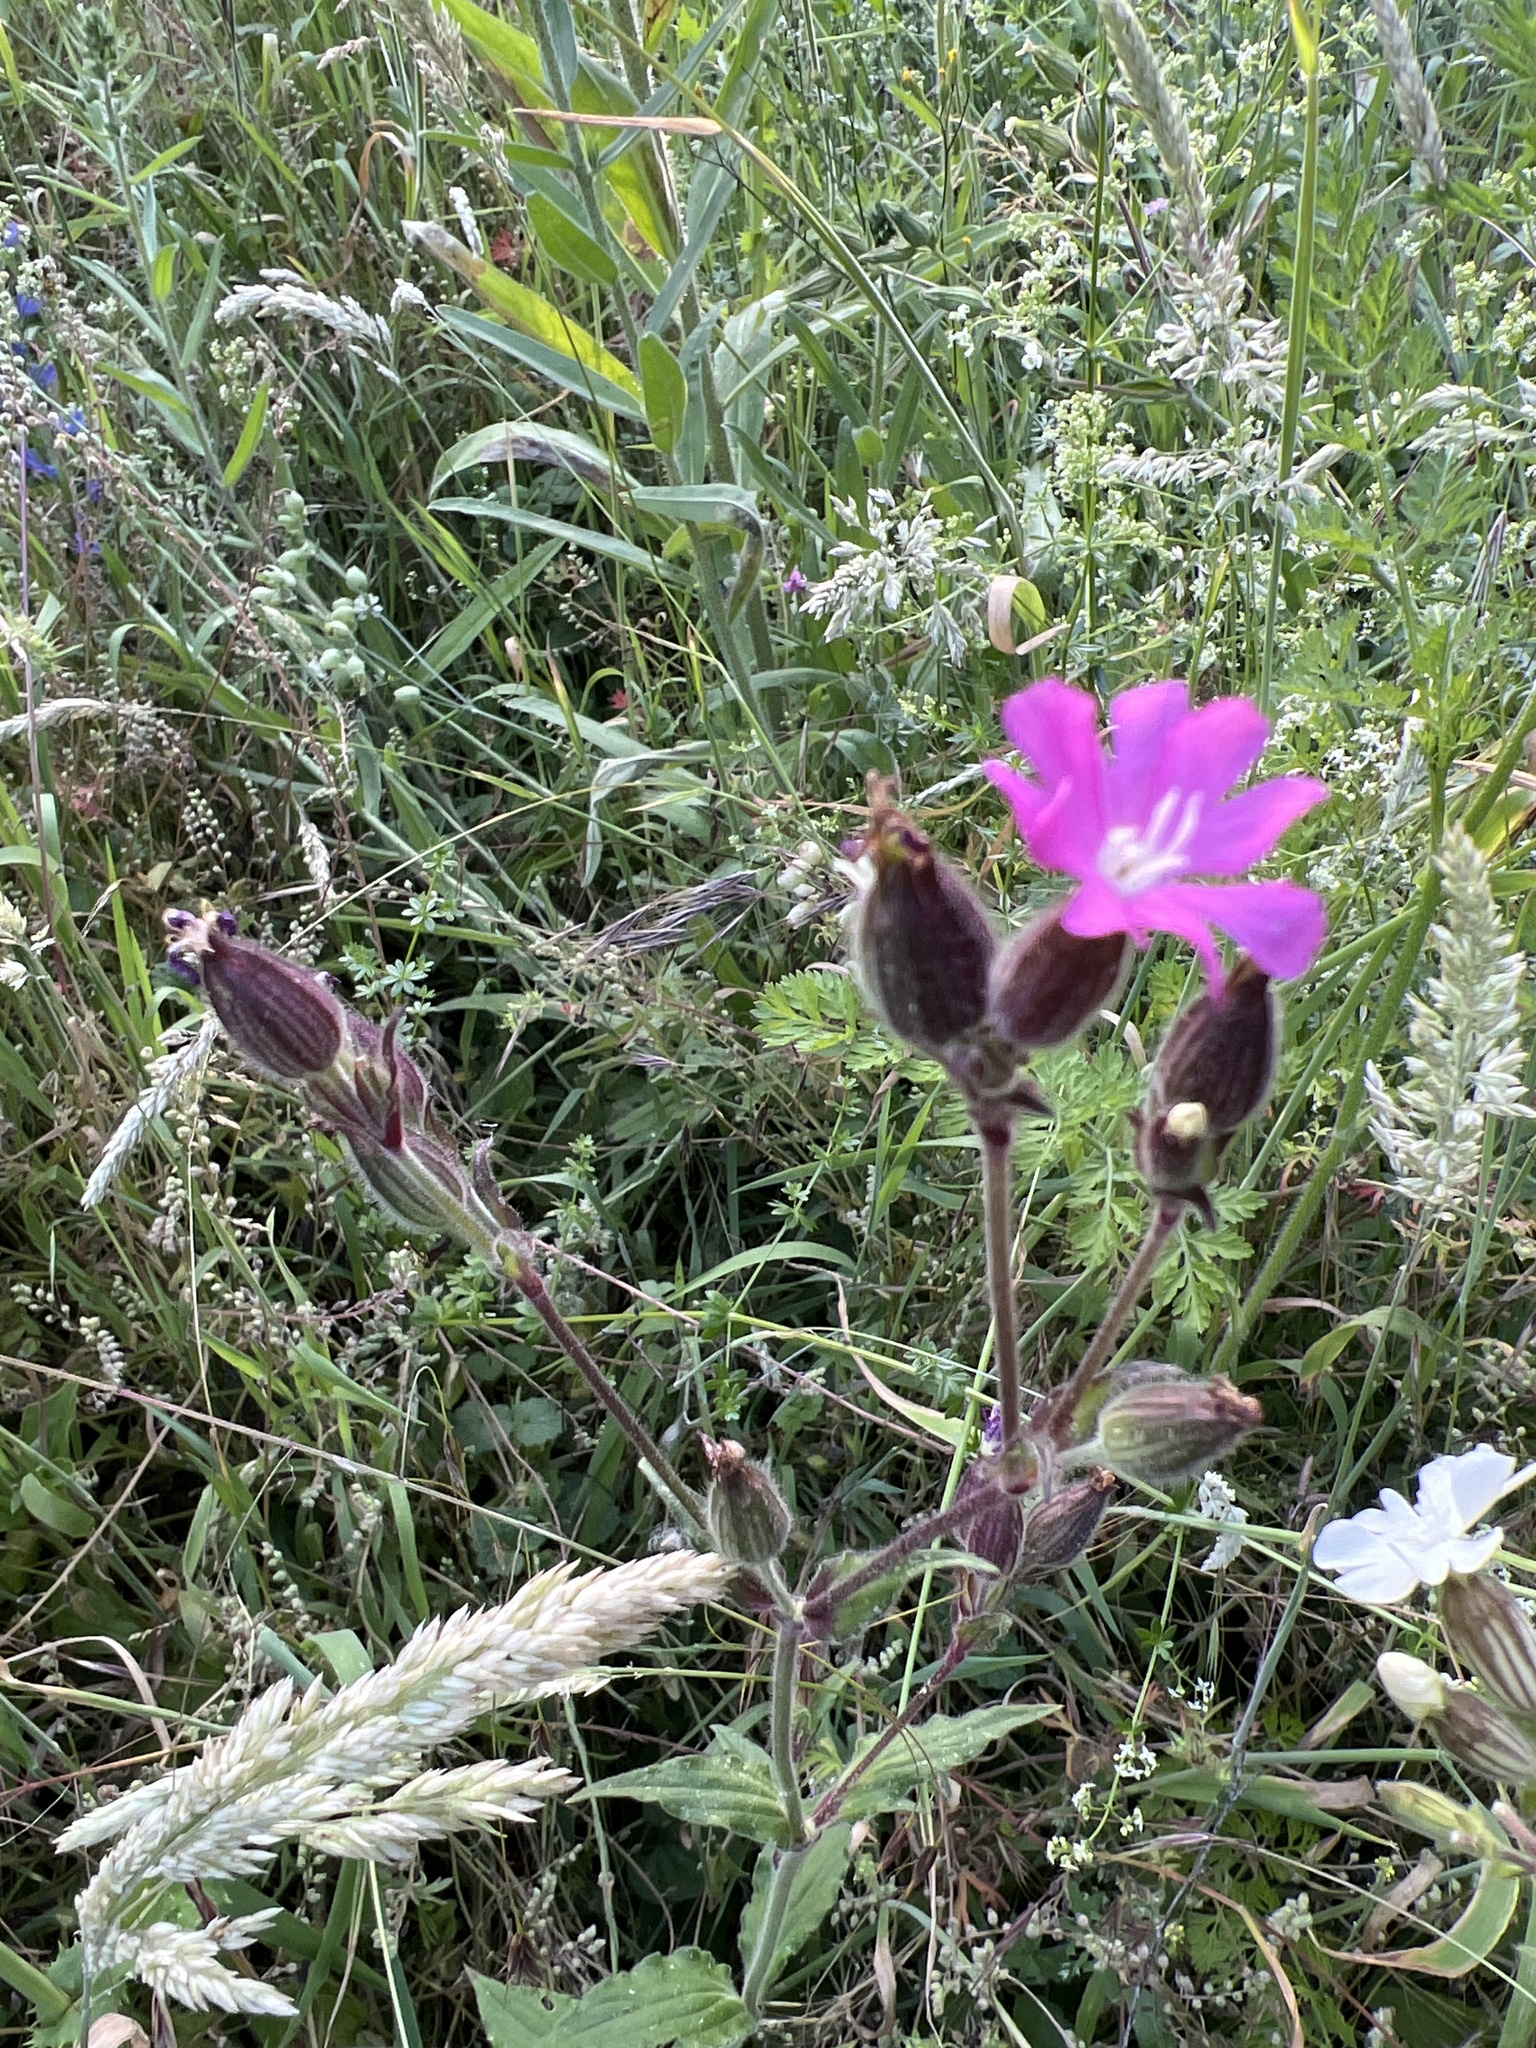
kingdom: Plantae
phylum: Tracheophyta
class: Magnoliopsida
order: Caryophyllales
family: Caryophyllaceae
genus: Silene
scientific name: Silene dioica
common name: Red campion
